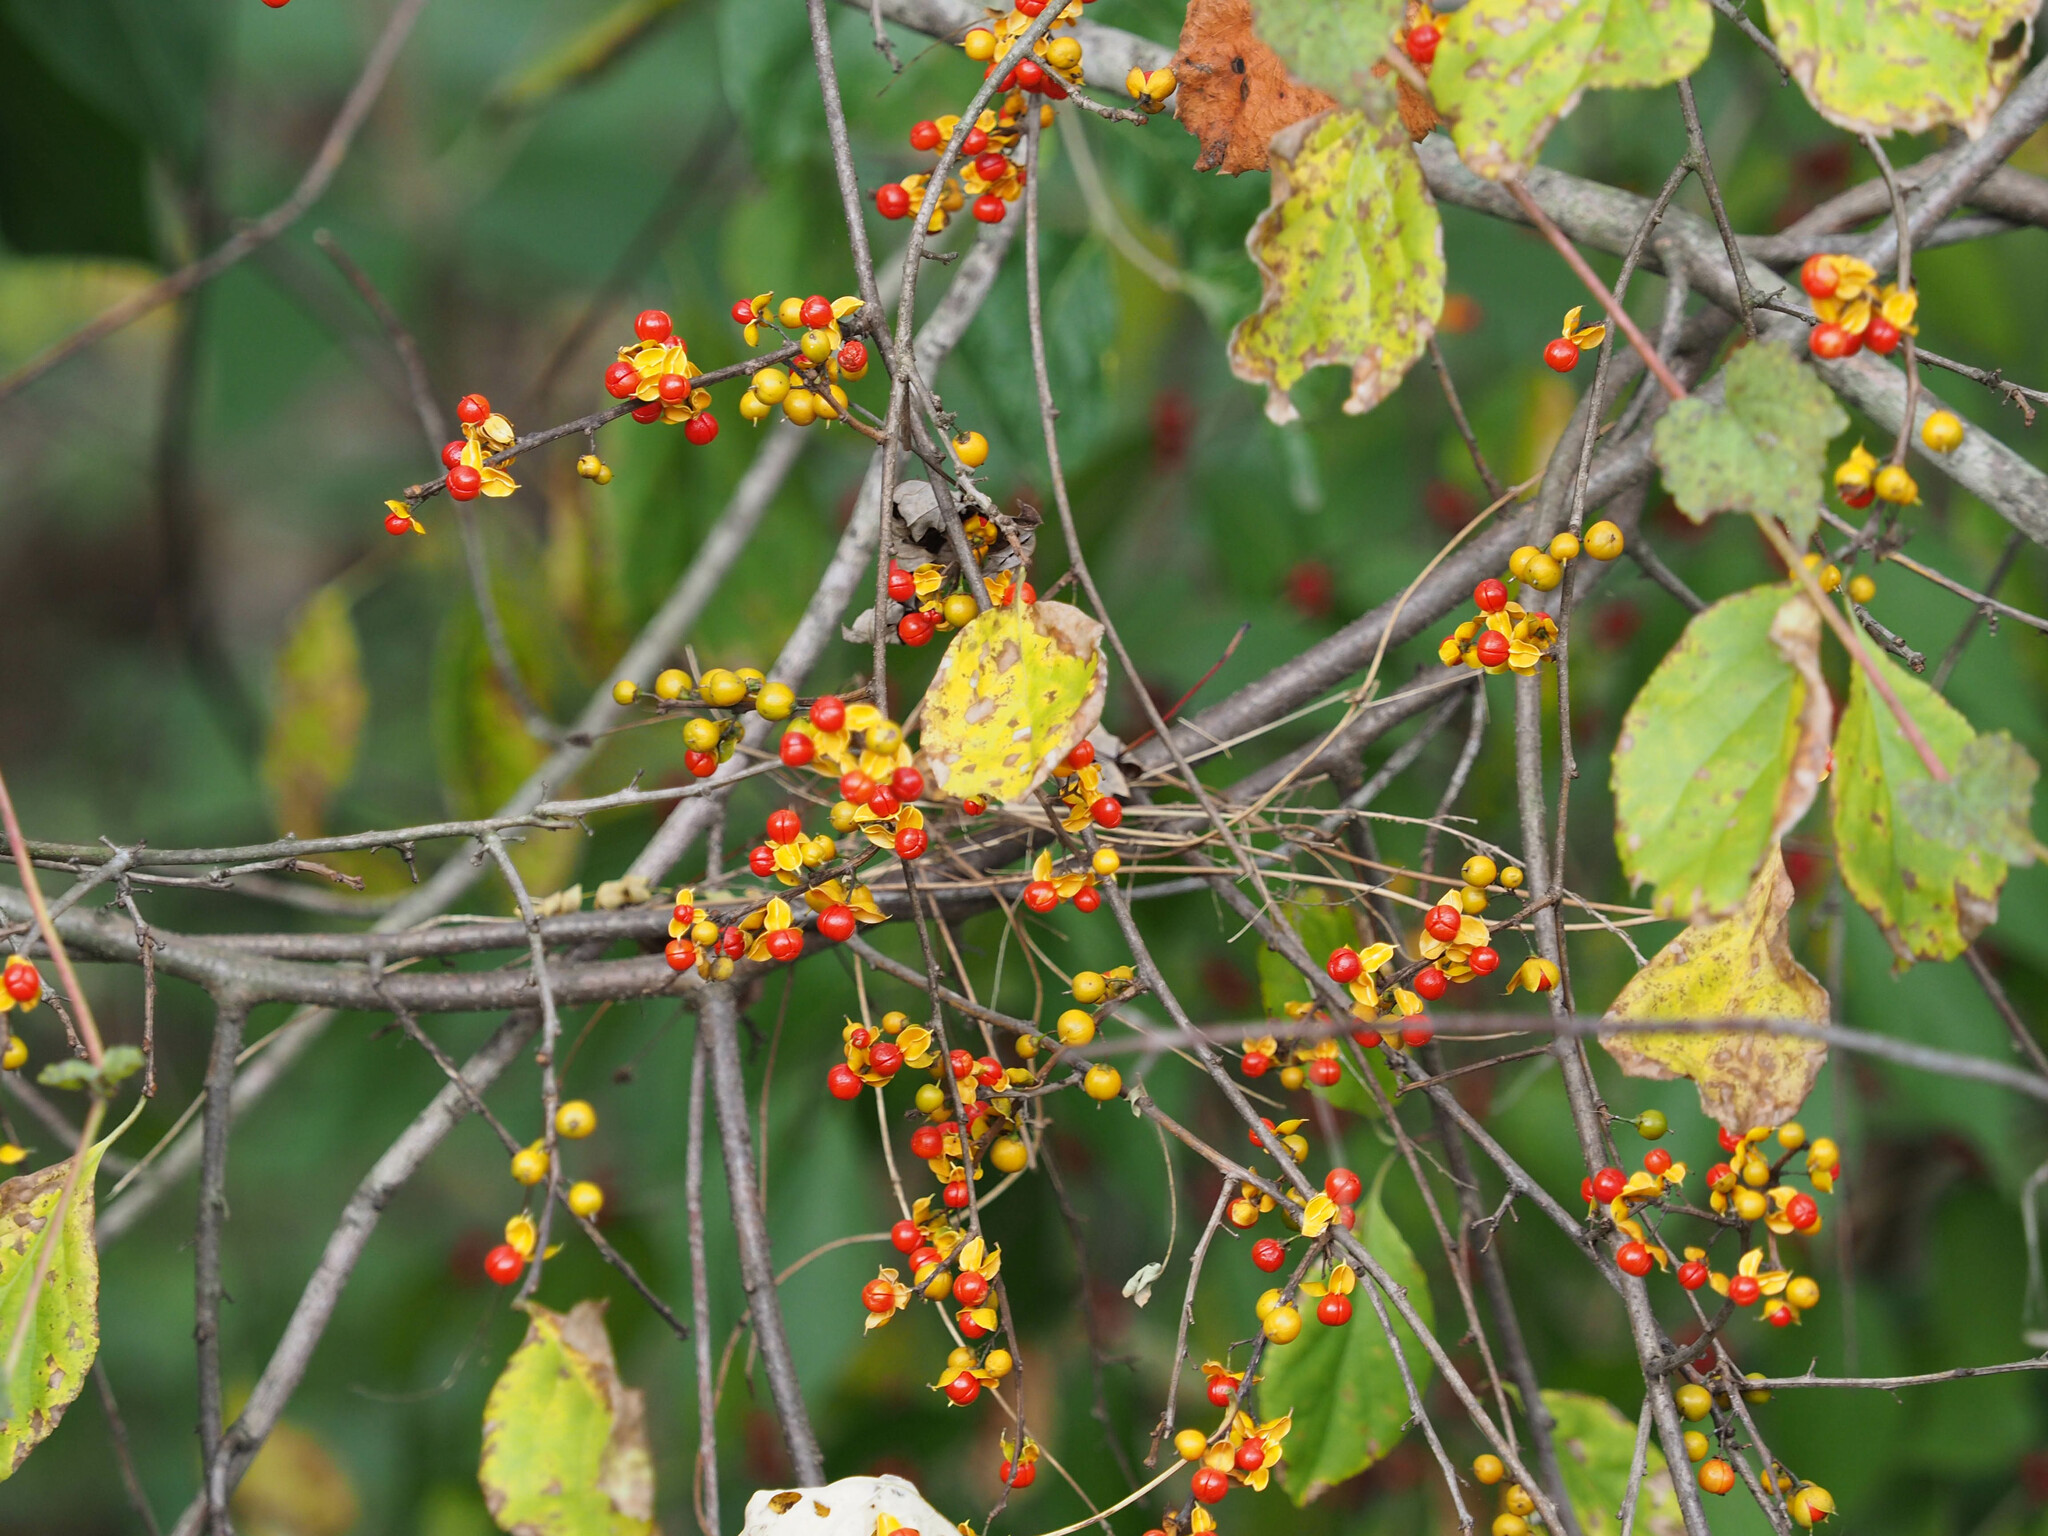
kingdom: Plantae
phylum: Tracheophyta
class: Magnoliopsida
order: Celastrales
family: Celastraceae
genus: Celastrus
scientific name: Celastrus orbiculatus
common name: Oriental bittersweet
